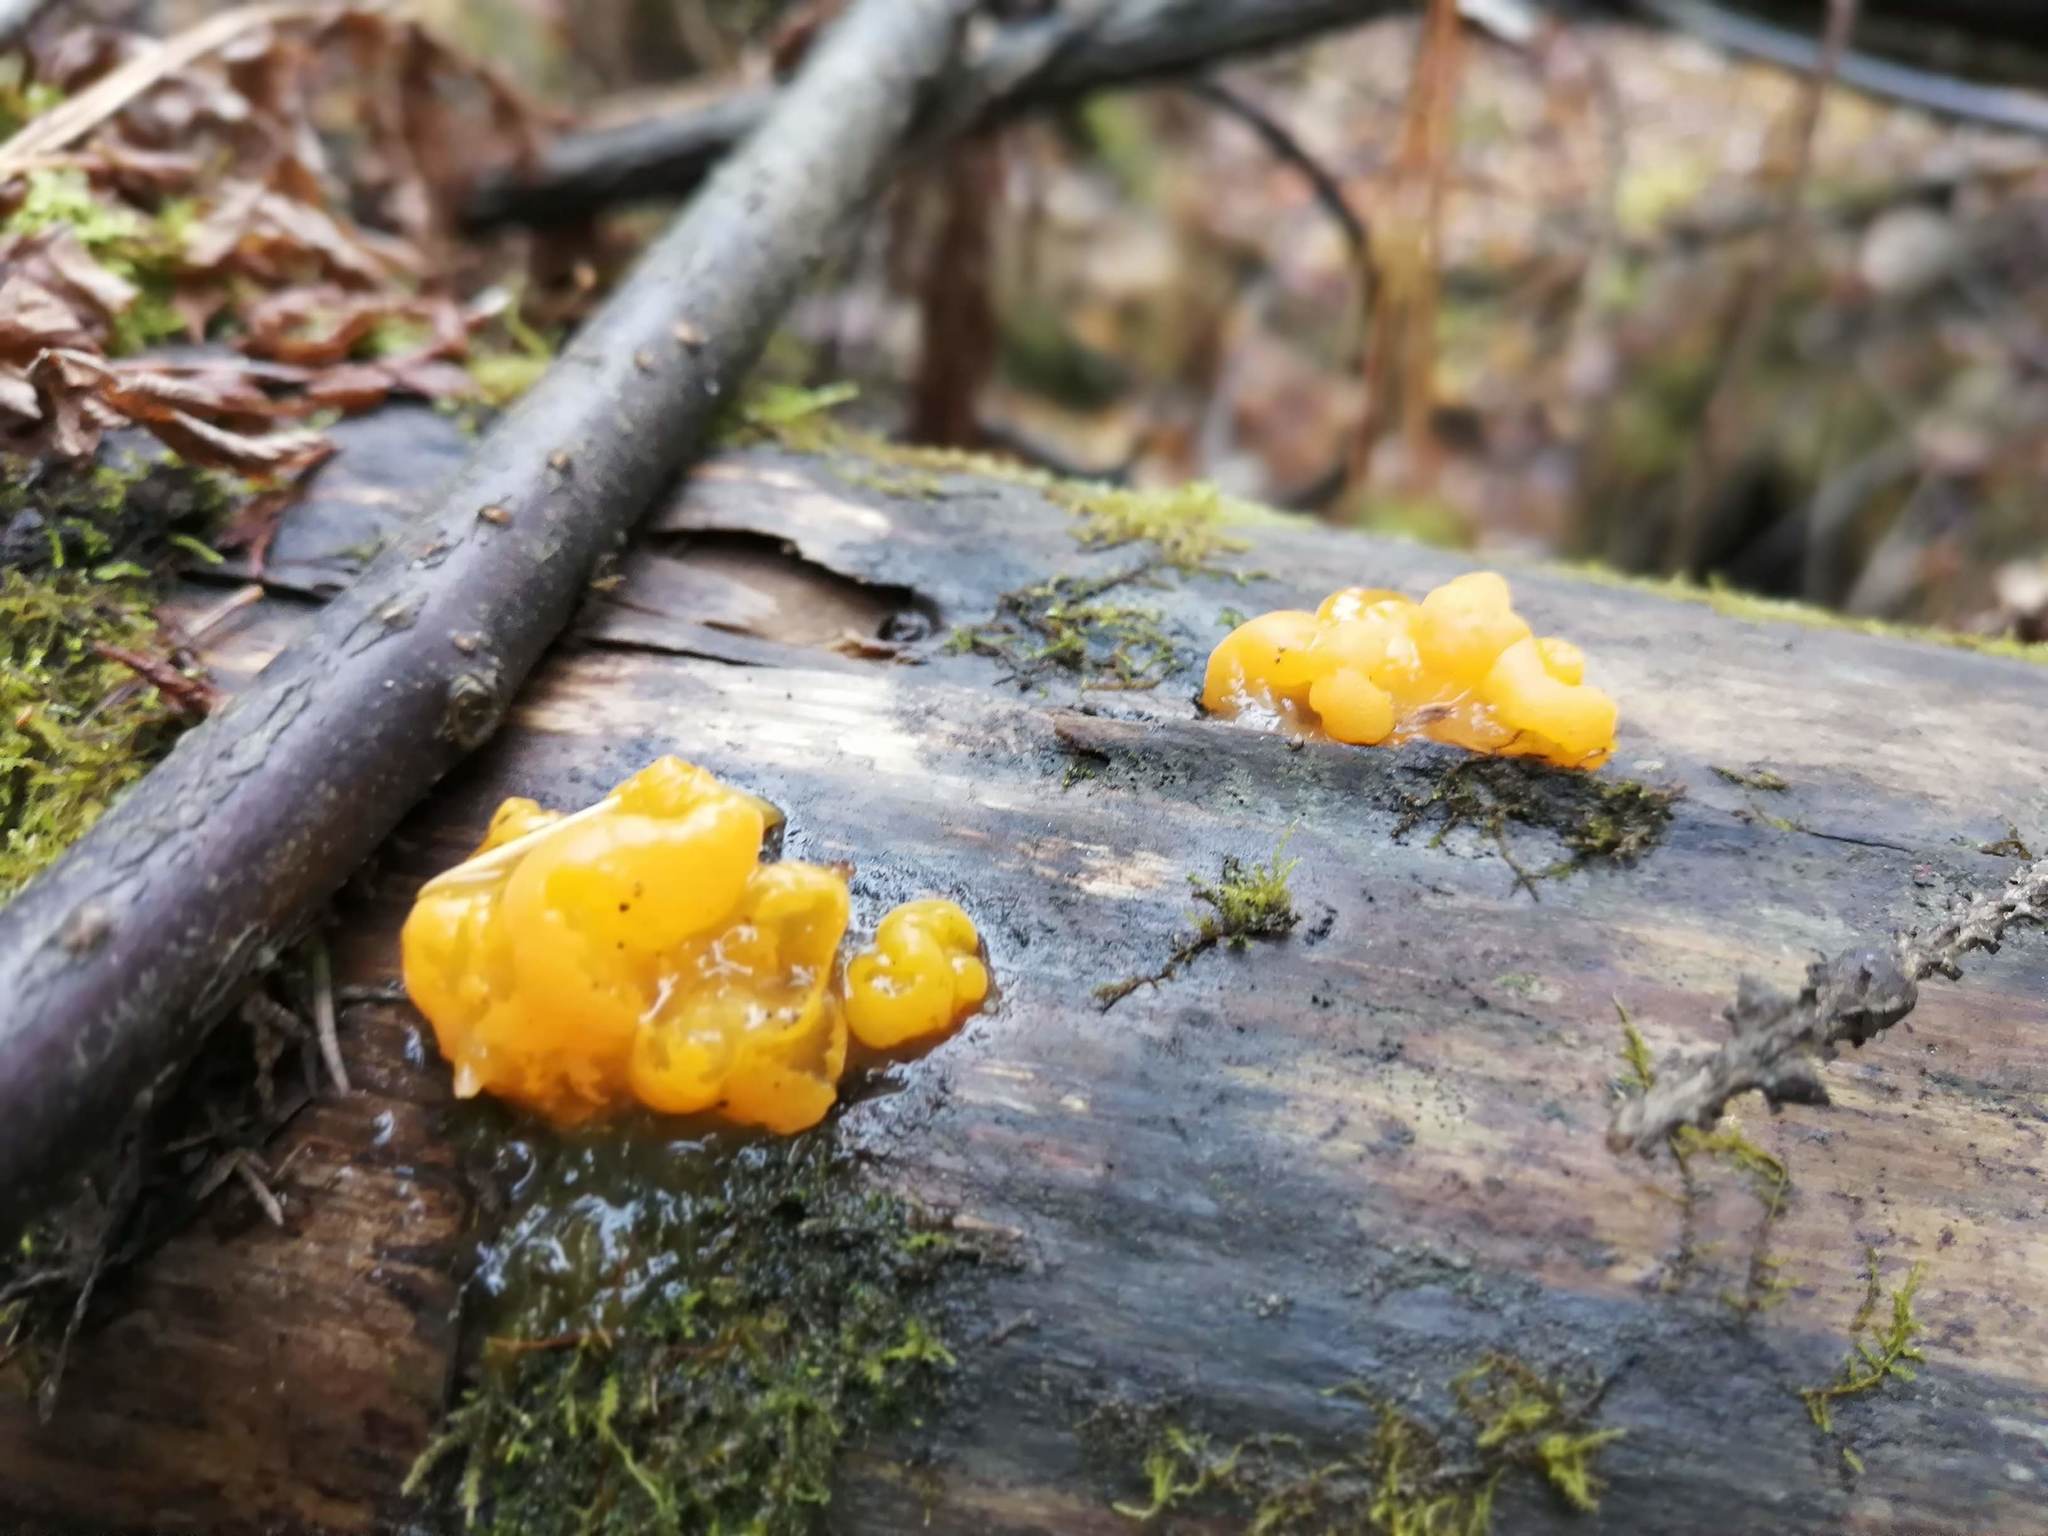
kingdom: Fungi
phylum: Basidiomycota
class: Dacrymycetes
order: Dacrymycetales
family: Dacrymycetaceae
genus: Dacrymyces
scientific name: Dacrymyces chrysospermus
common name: Orange jelly spot
